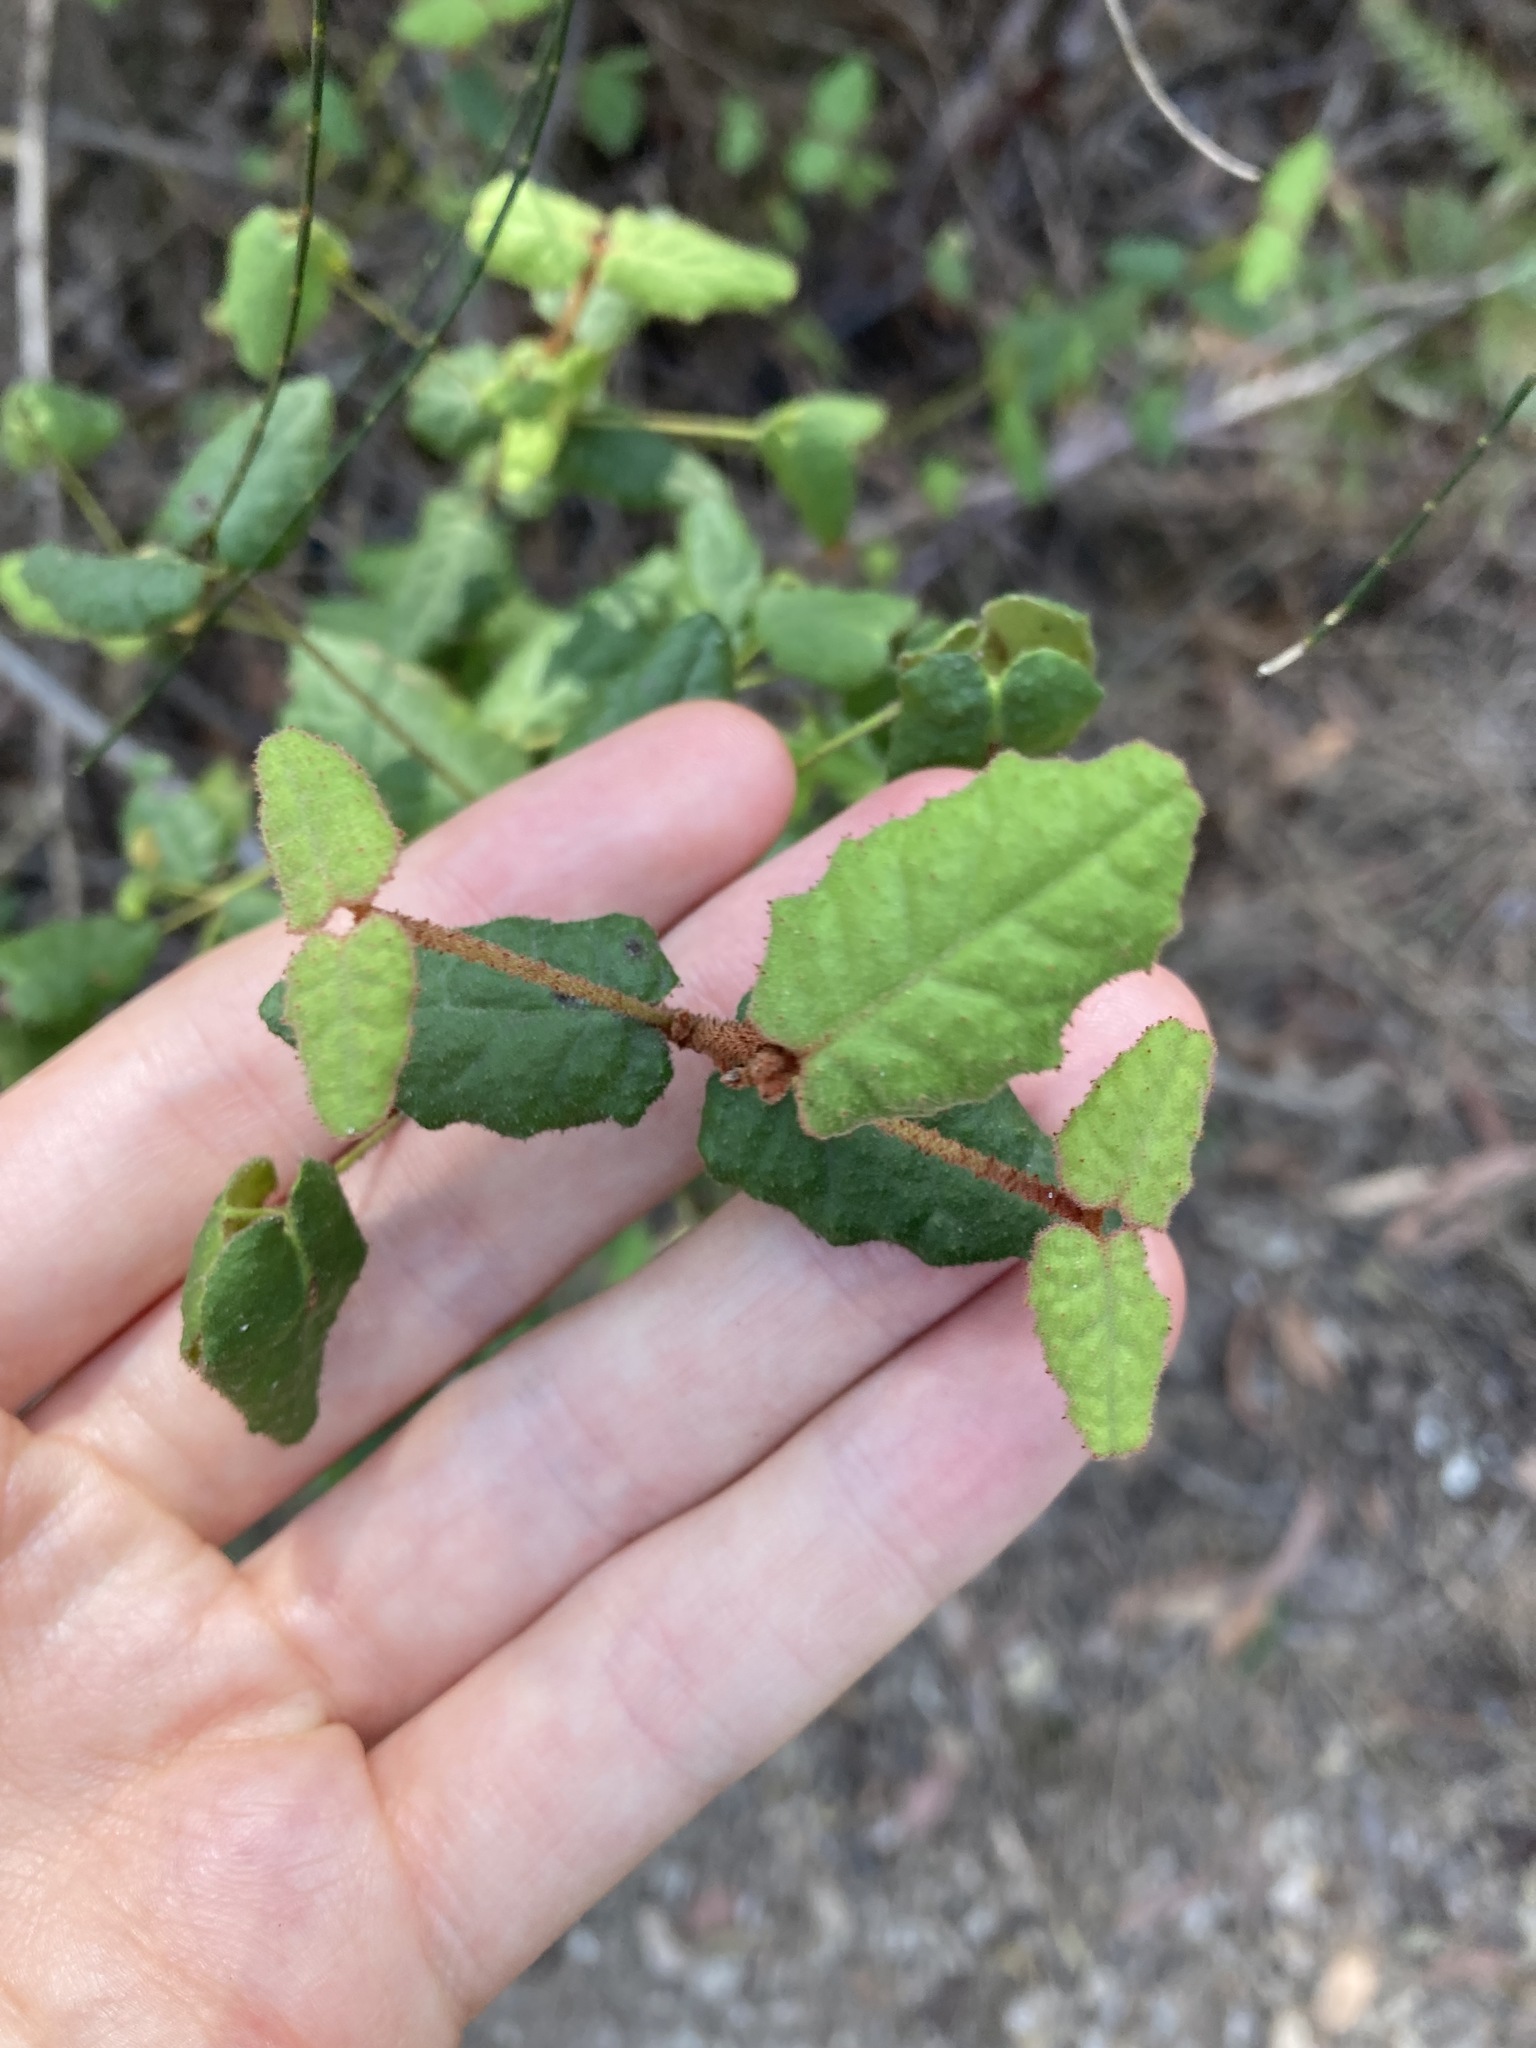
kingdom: Plantae
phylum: Tracheophyta
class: Magnoliopsida
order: Sapindales
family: Rutaceae
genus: Correa
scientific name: Correa reflexa
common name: Common correa
